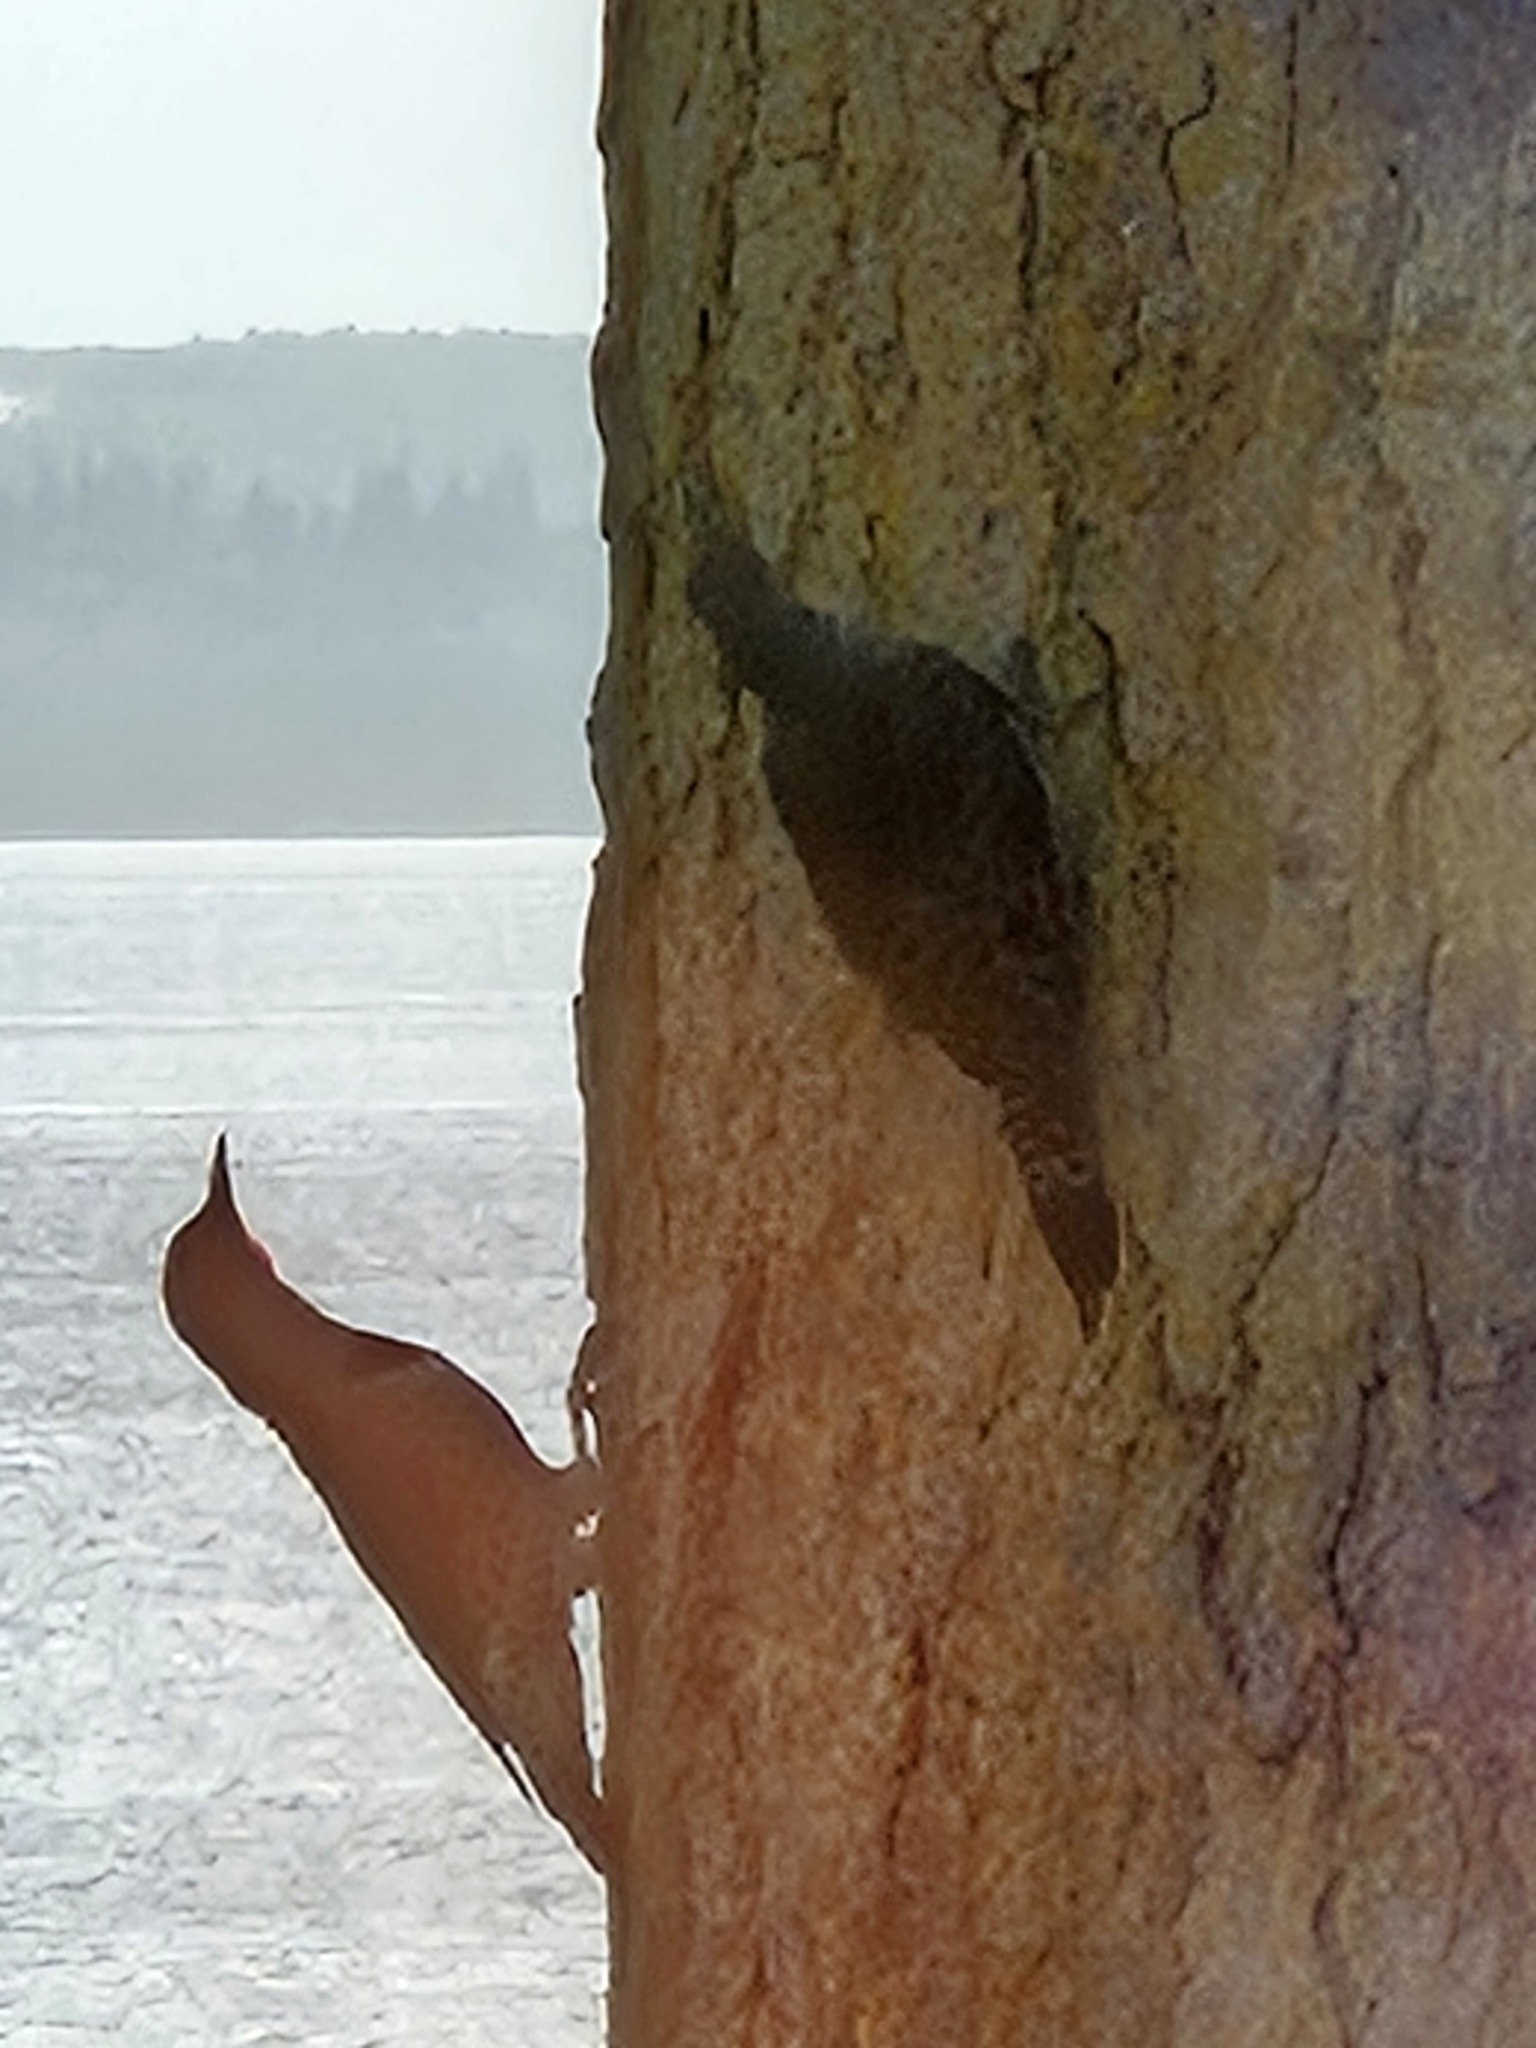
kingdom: Animalia
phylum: Chordata
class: Aves
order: Piciformes
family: Picidae
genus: Colaptes
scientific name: Colaptes auratus
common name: Northern flicker
